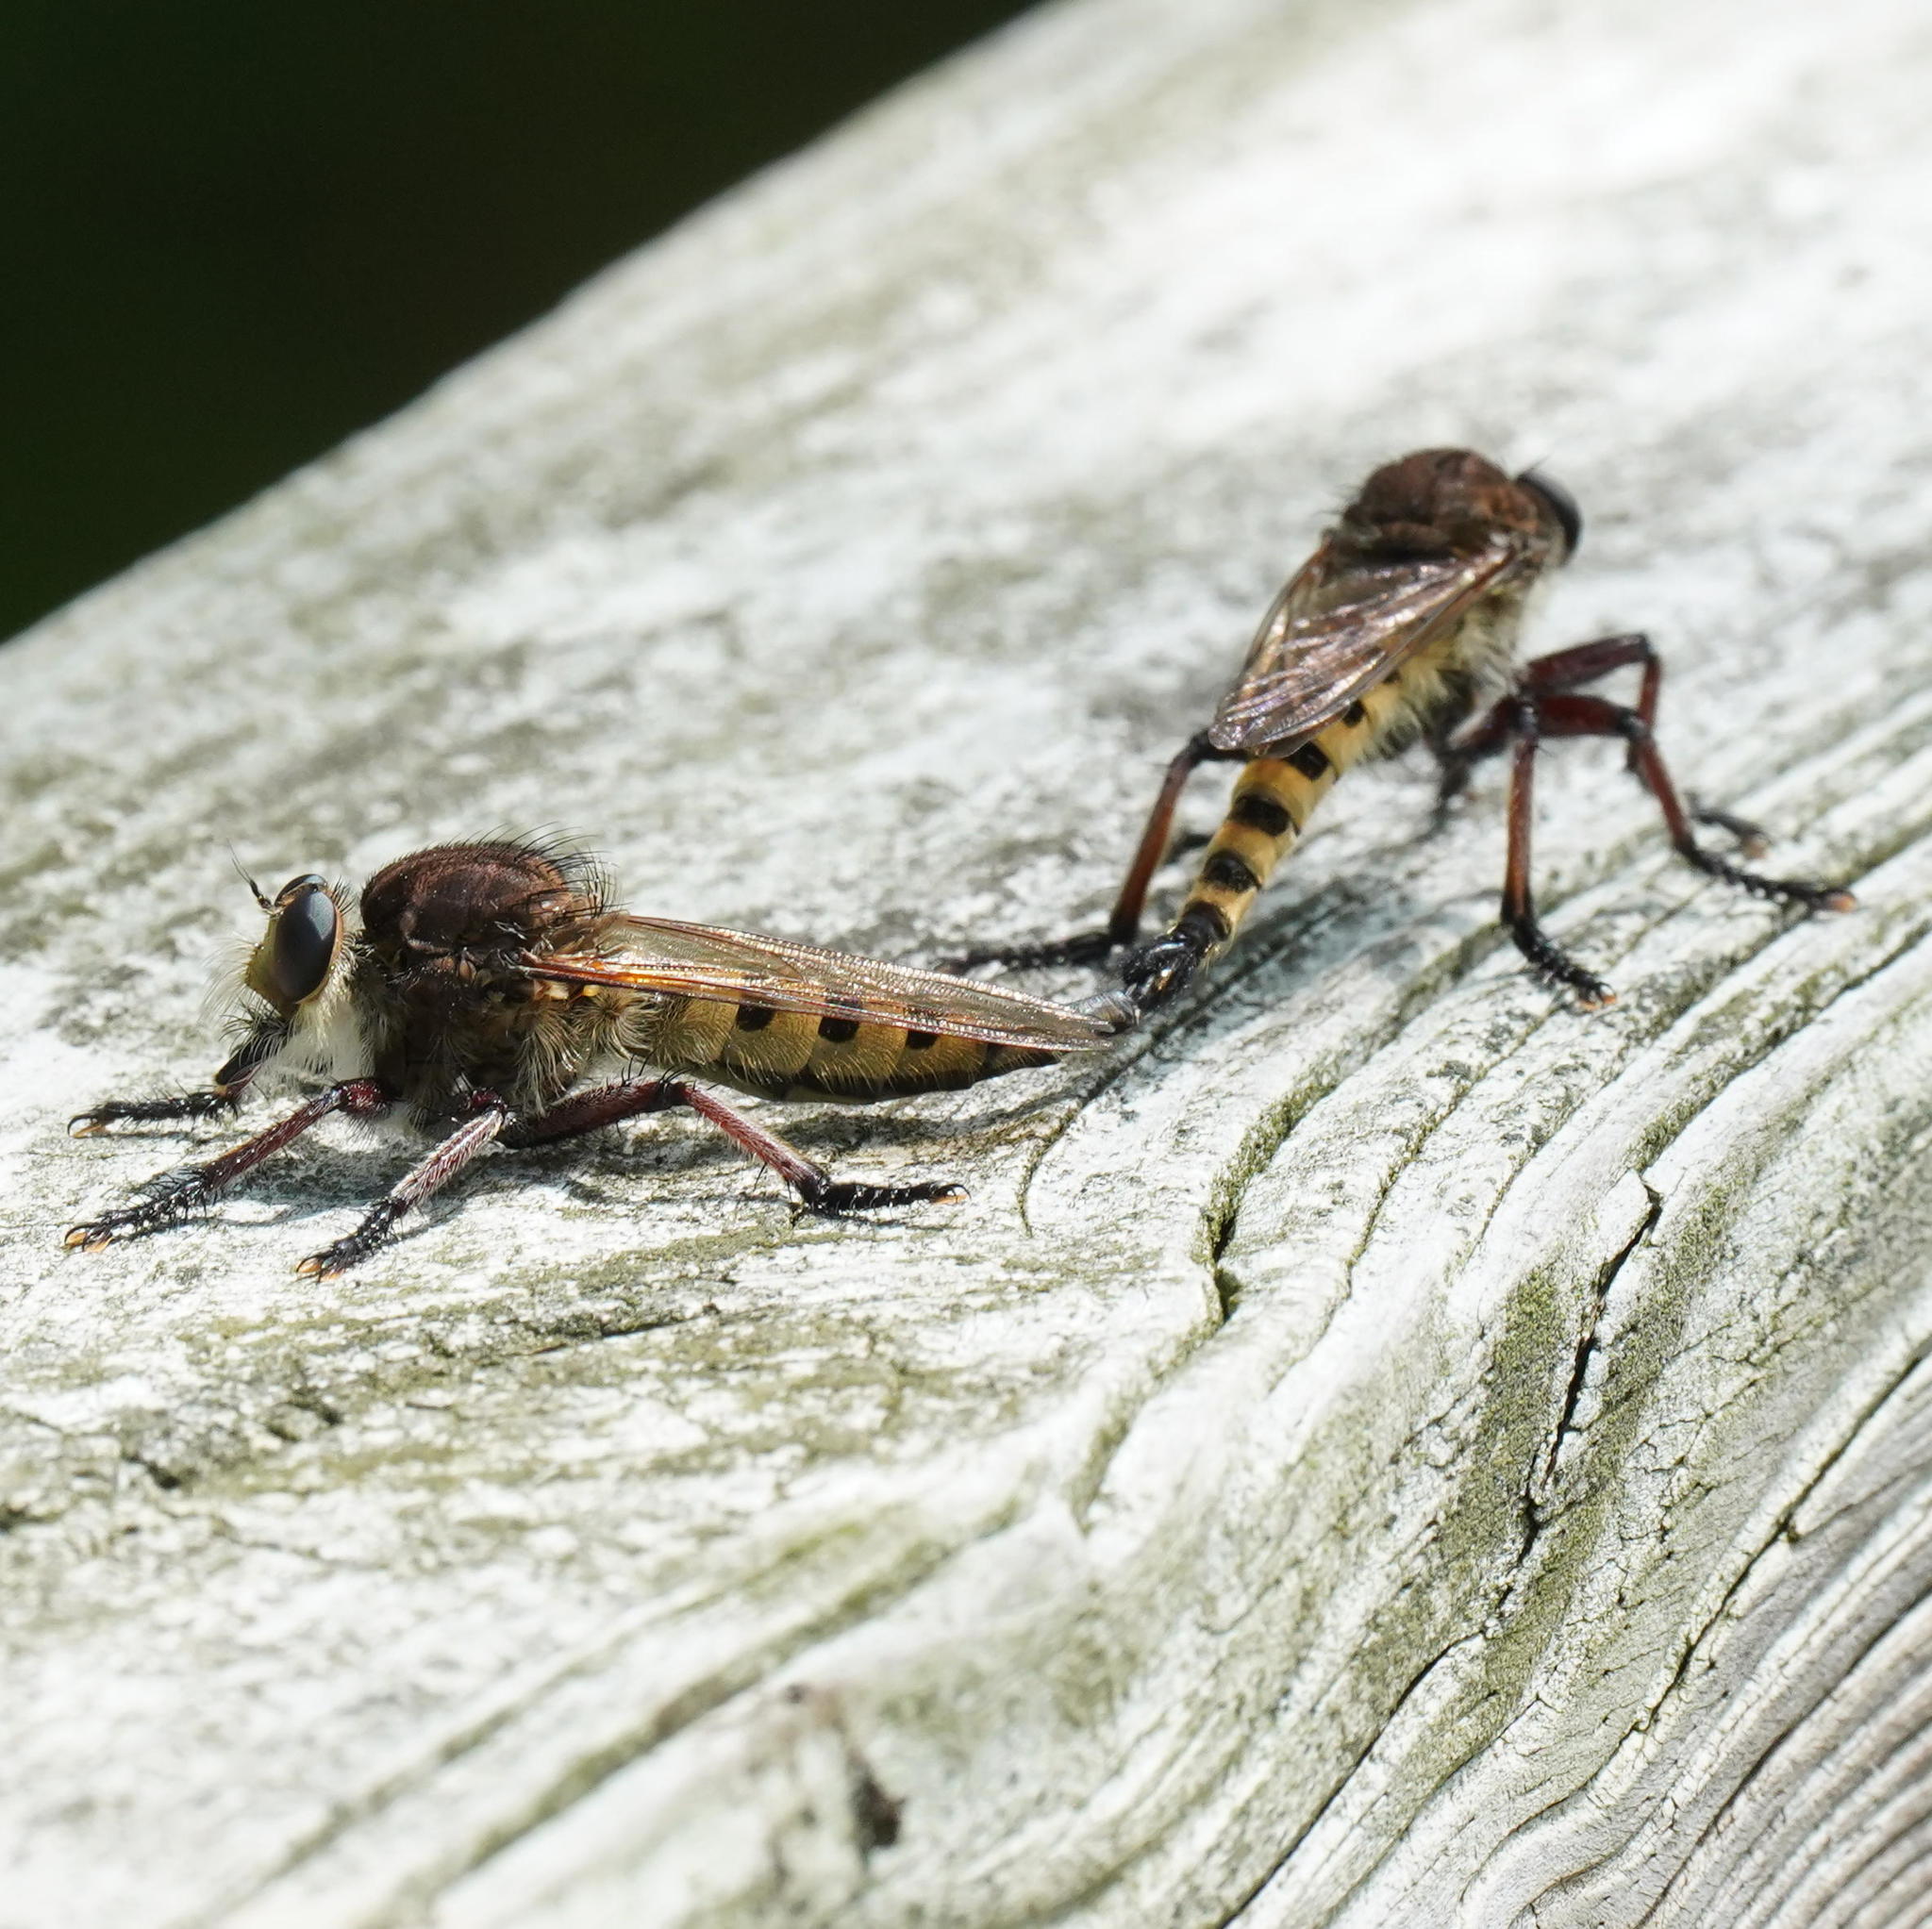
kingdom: Animalia
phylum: Arthropoda
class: Insecta
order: Diptera
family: Asilidae
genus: Promachus
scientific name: Promachus hinei
